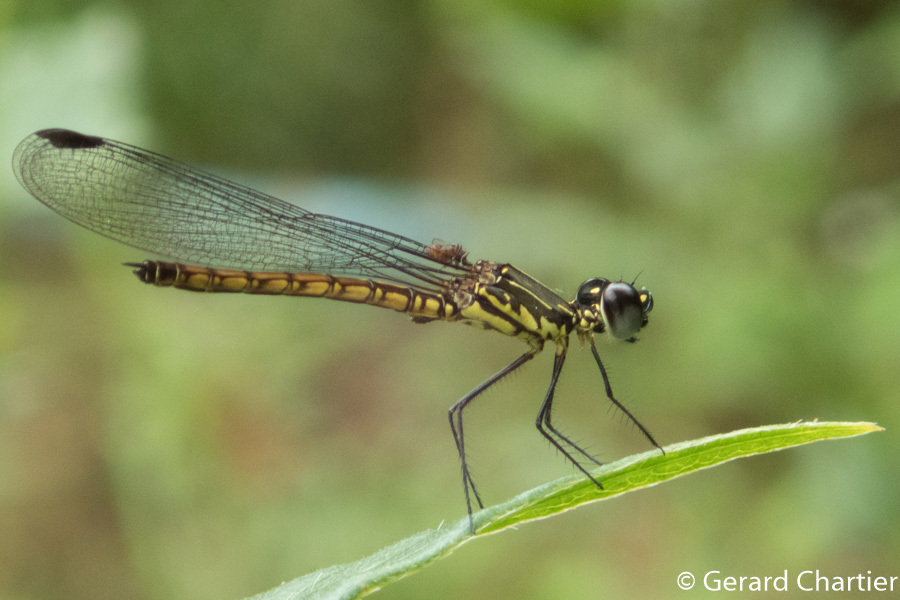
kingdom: Animalia
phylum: Arthropoda
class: Insecta
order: Odonata
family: Chlorocyphidae
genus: Libellago
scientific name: Libellago hyalina
